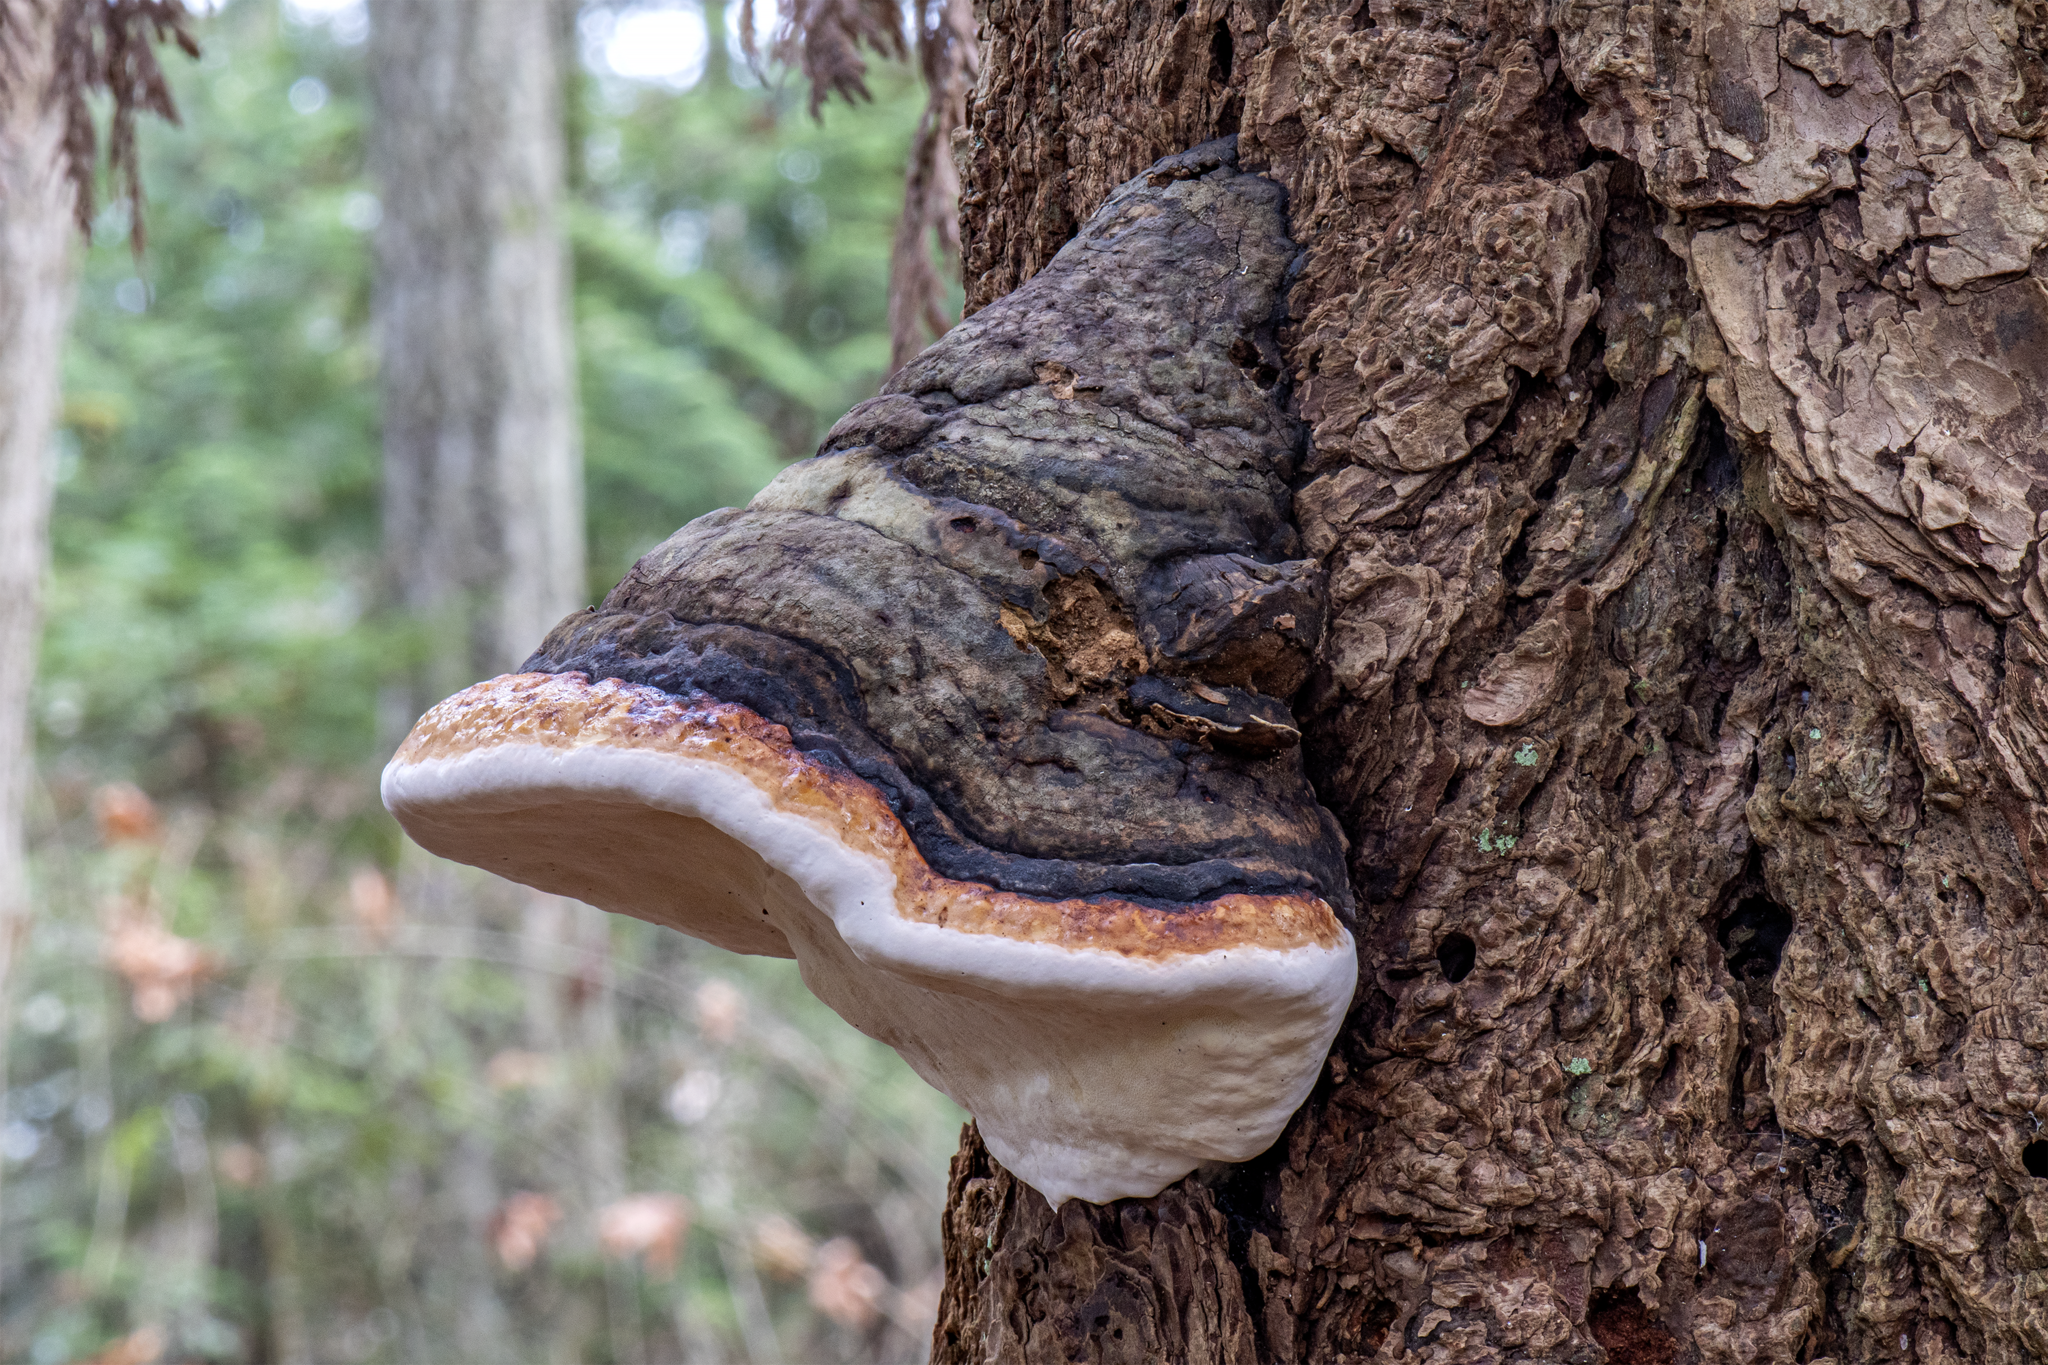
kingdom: Fungi
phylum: Basidiomycota
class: Agaricomycetes
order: Polyporales
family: Fomitopsidaceae
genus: Fomitopsis
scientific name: Fomitopsis mounceae
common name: Northern red belt
